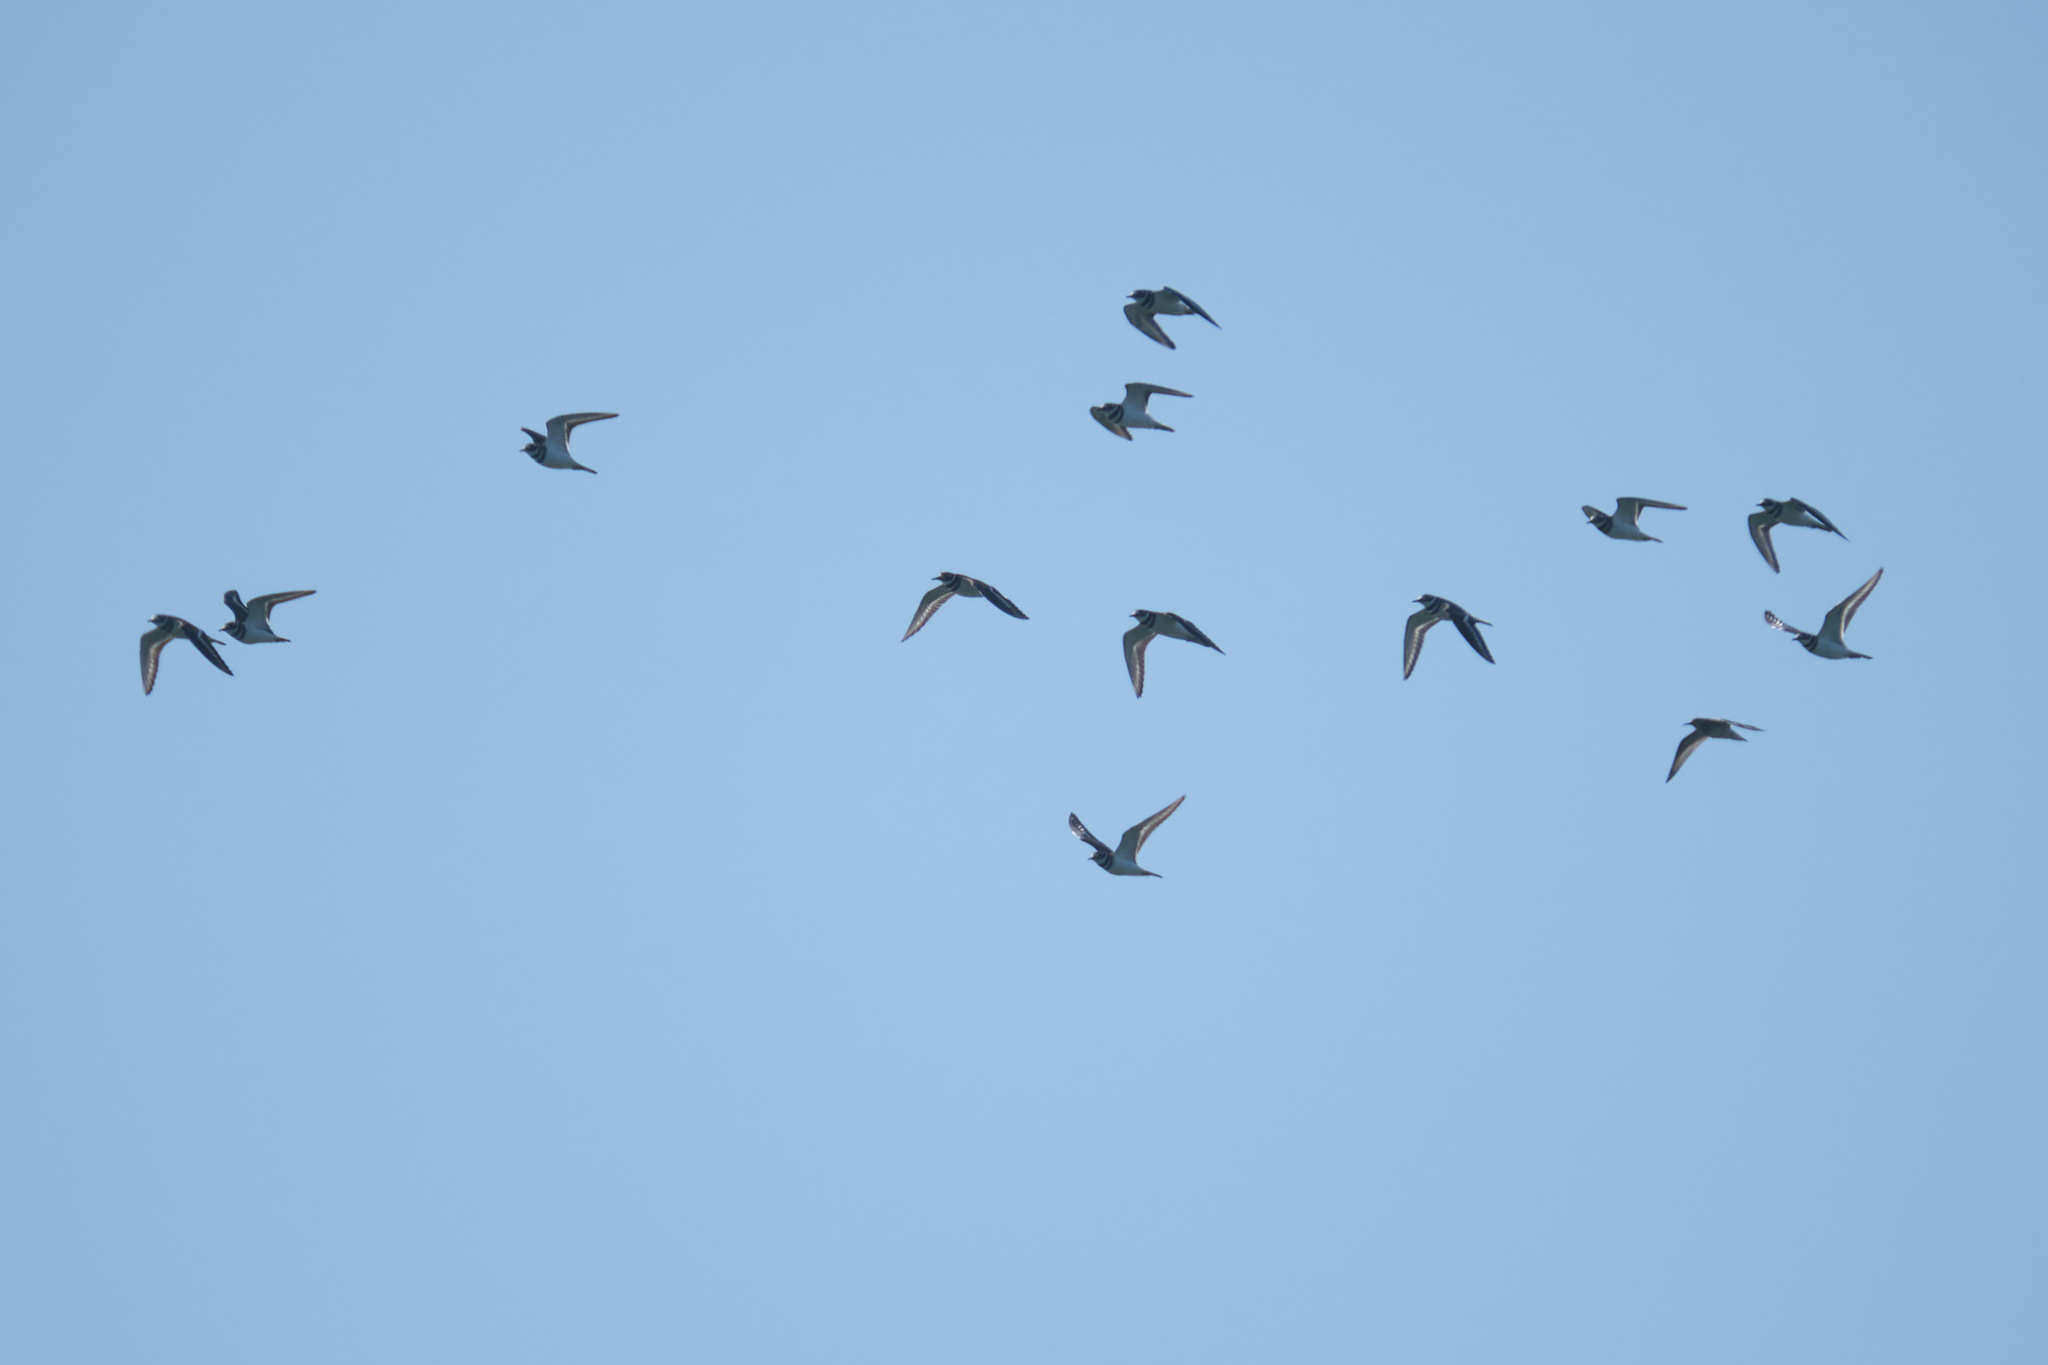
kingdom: Animalia
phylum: Chordata
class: Aves
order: Charadriiformes
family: Charadriidae
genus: Charadrius
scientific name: Charadrius vociferus
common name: Killdeer
